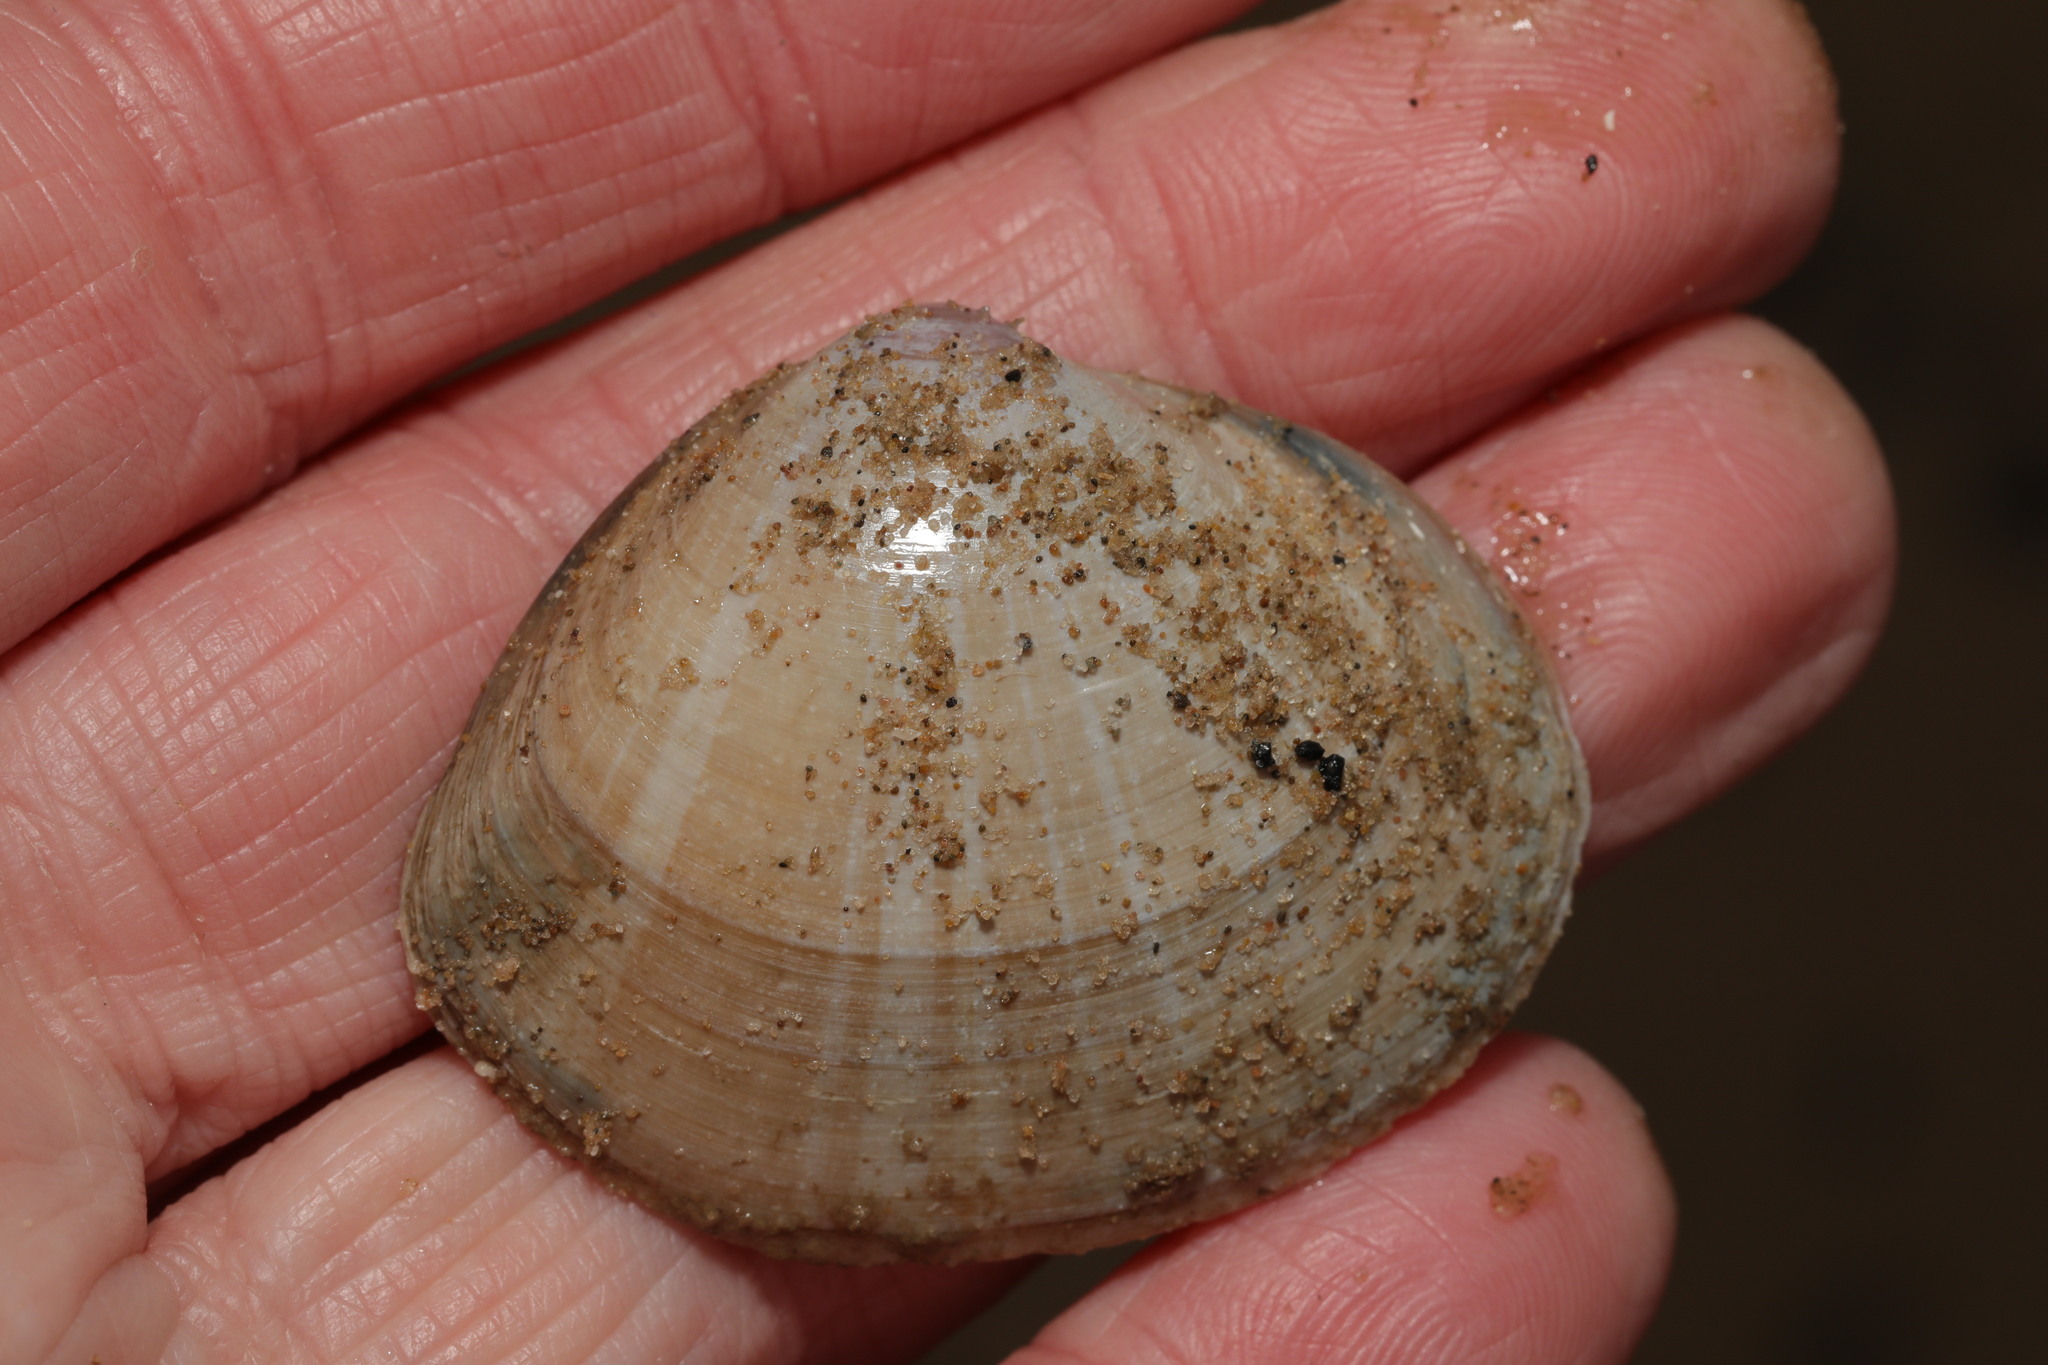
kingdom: Animalia
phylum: Mollusca
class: Bivalvia
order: Venerida
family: Mactridae
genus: Mactra
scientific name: Mactra stultorum
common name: Rayed trough shell
